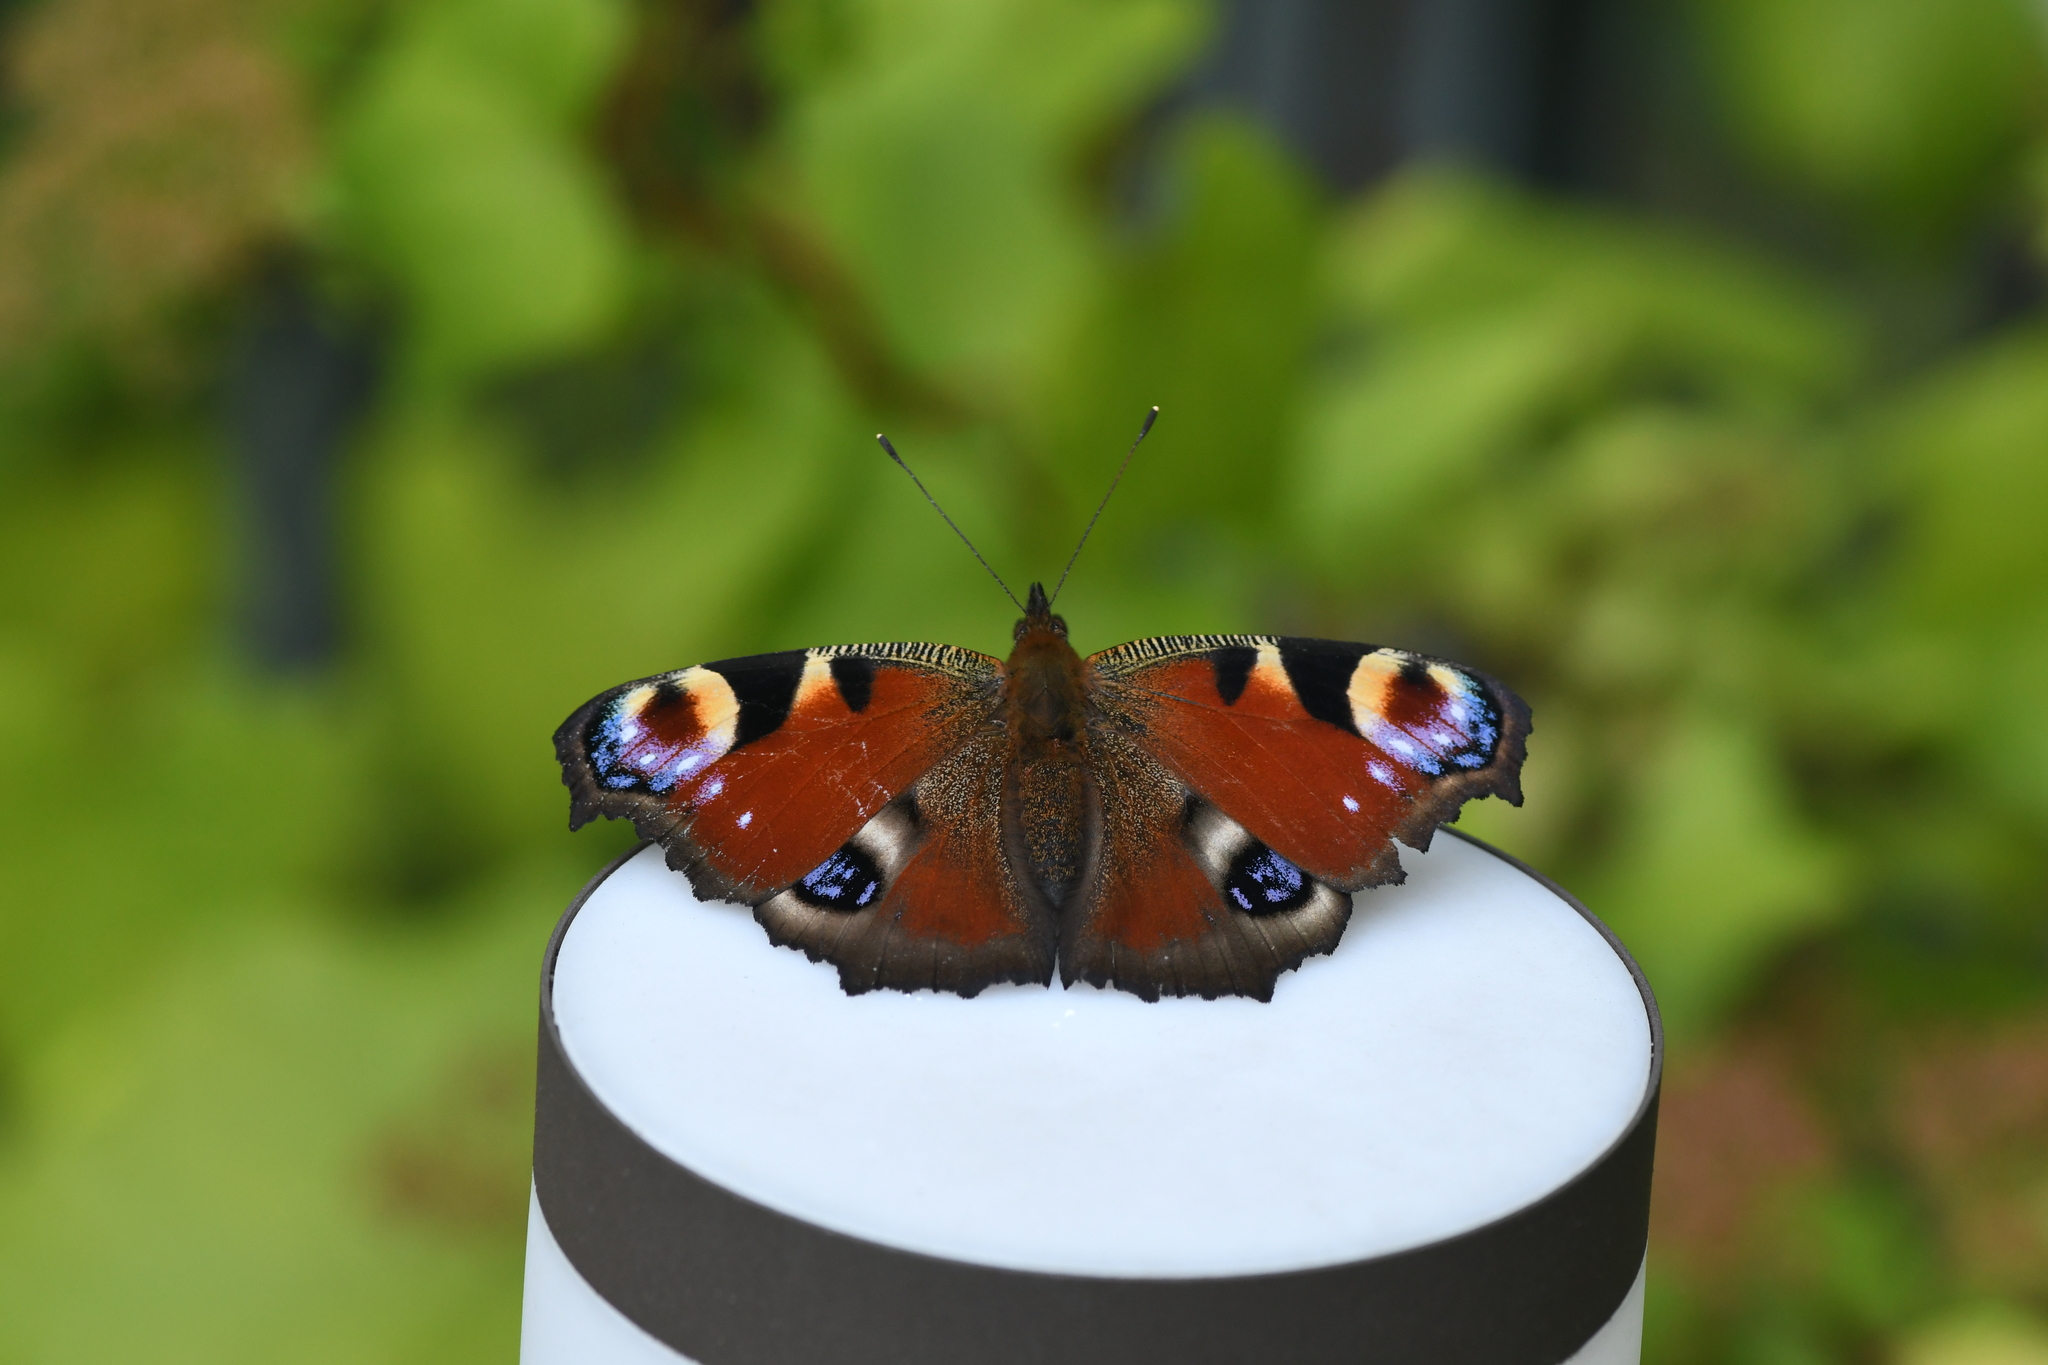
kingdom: Animalia
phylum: Arthropoda
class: Insecta
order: Lepidoptera
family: Nymphalidae
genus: Aglais
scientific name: Aglais io
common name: Peacock
